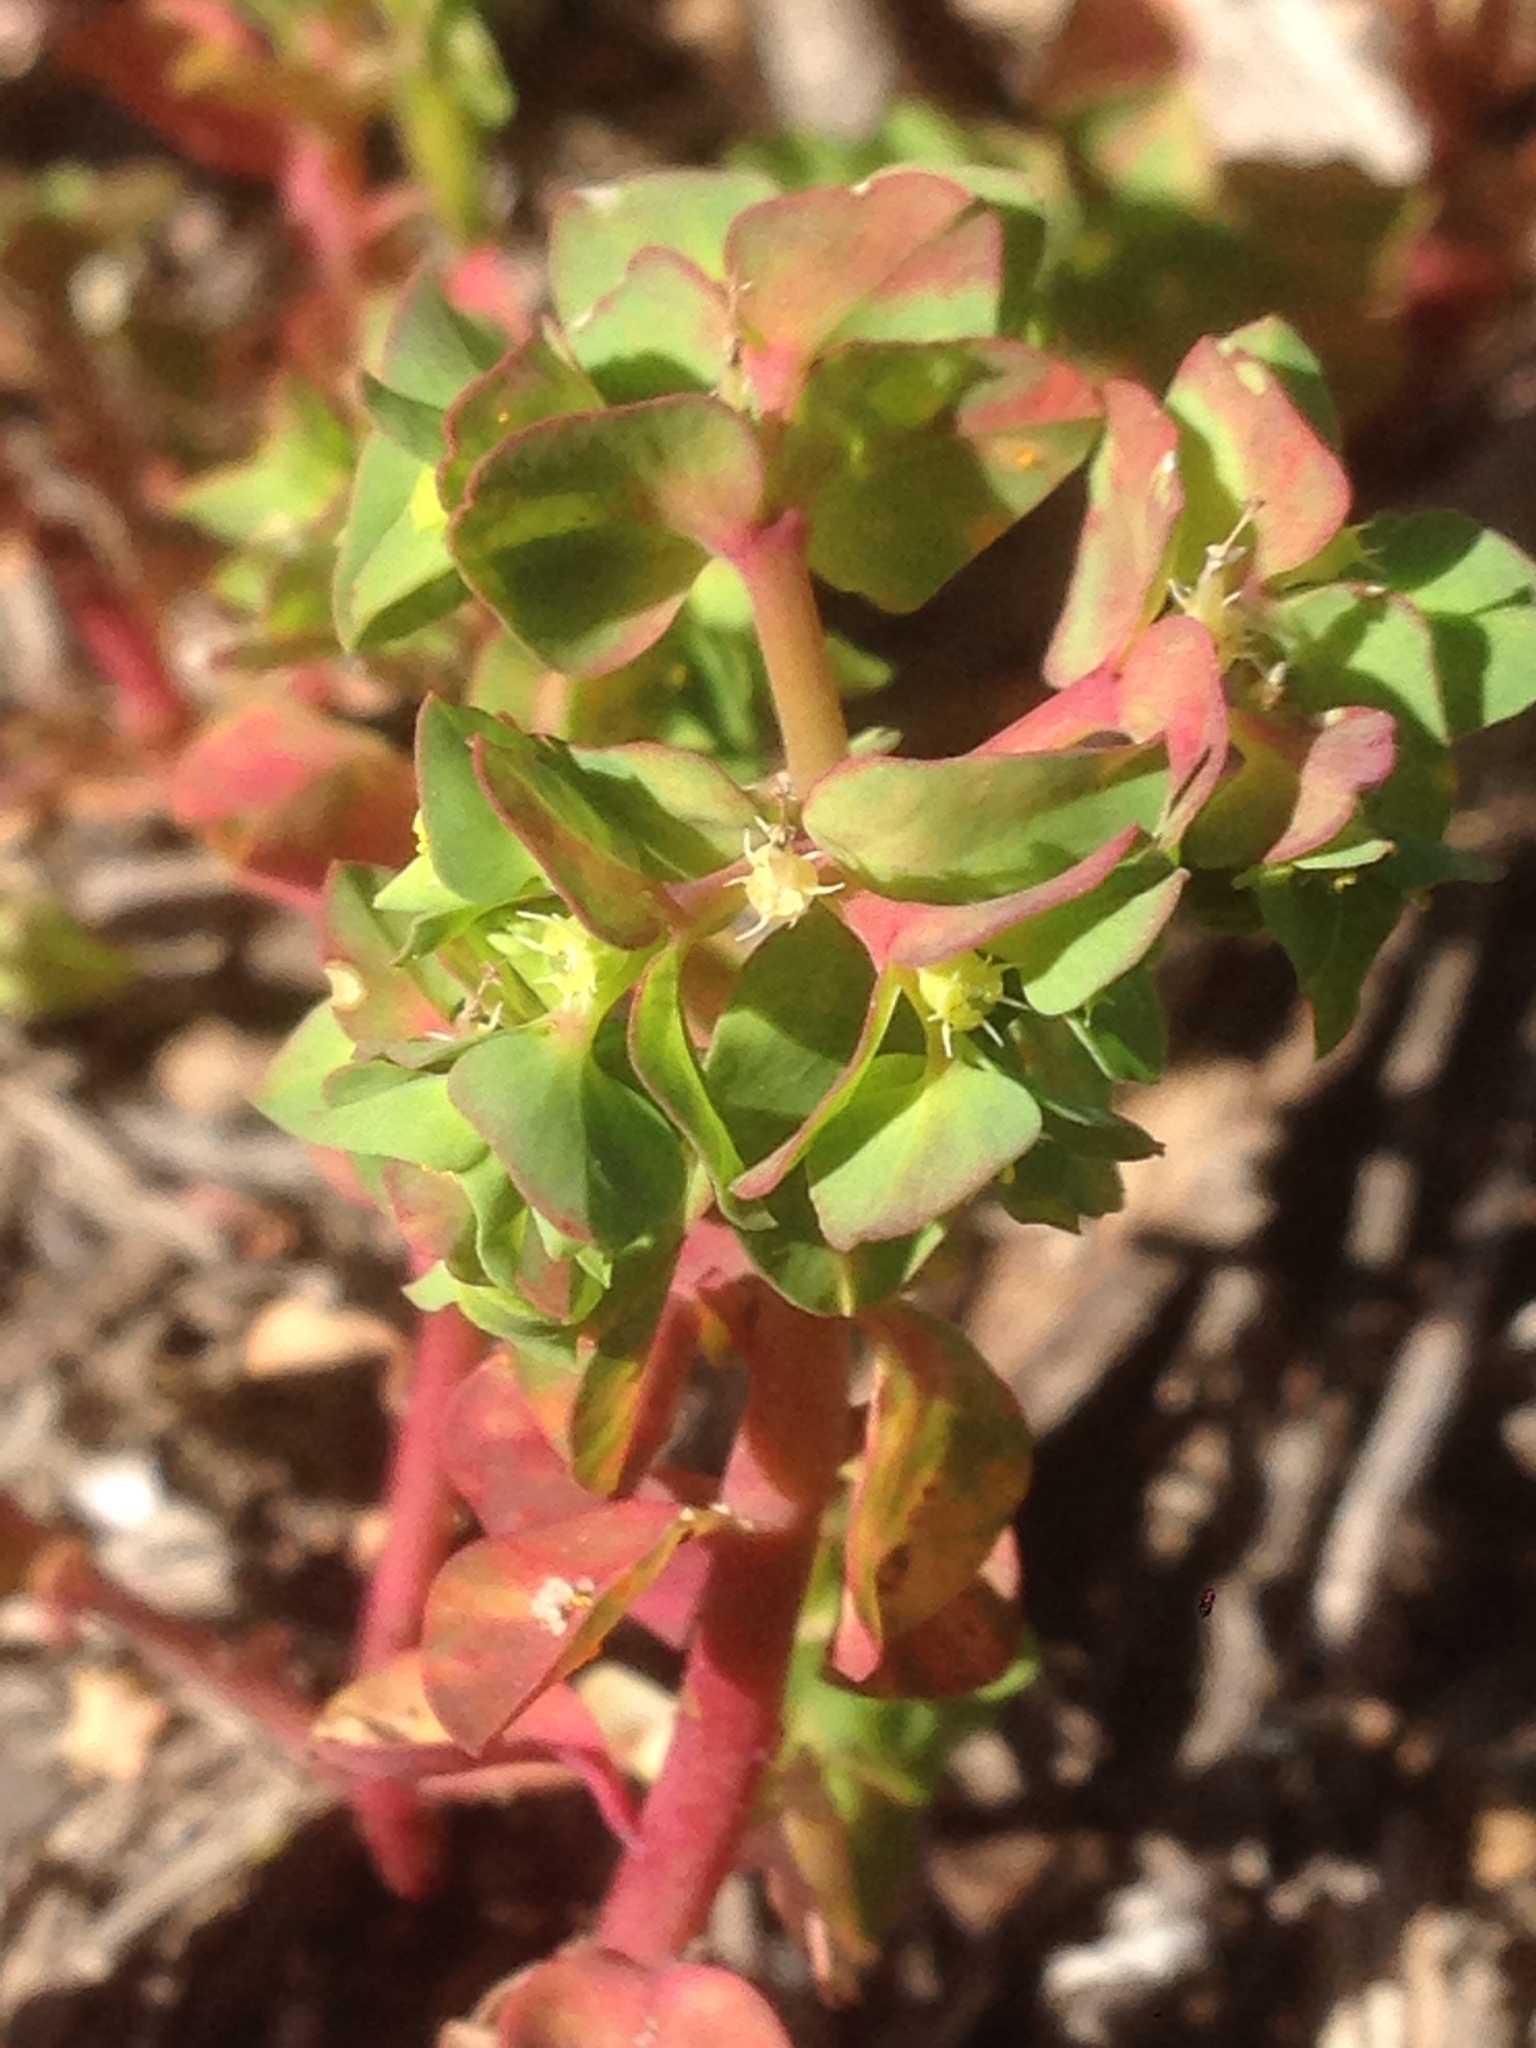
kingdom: Plantae
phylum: Tracheophyta
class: Magnoliopsida
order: Malpighiales
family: Euphorbiaceae
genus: Euphorbia
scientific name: Euphorbia peplus
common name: Petty spurge
